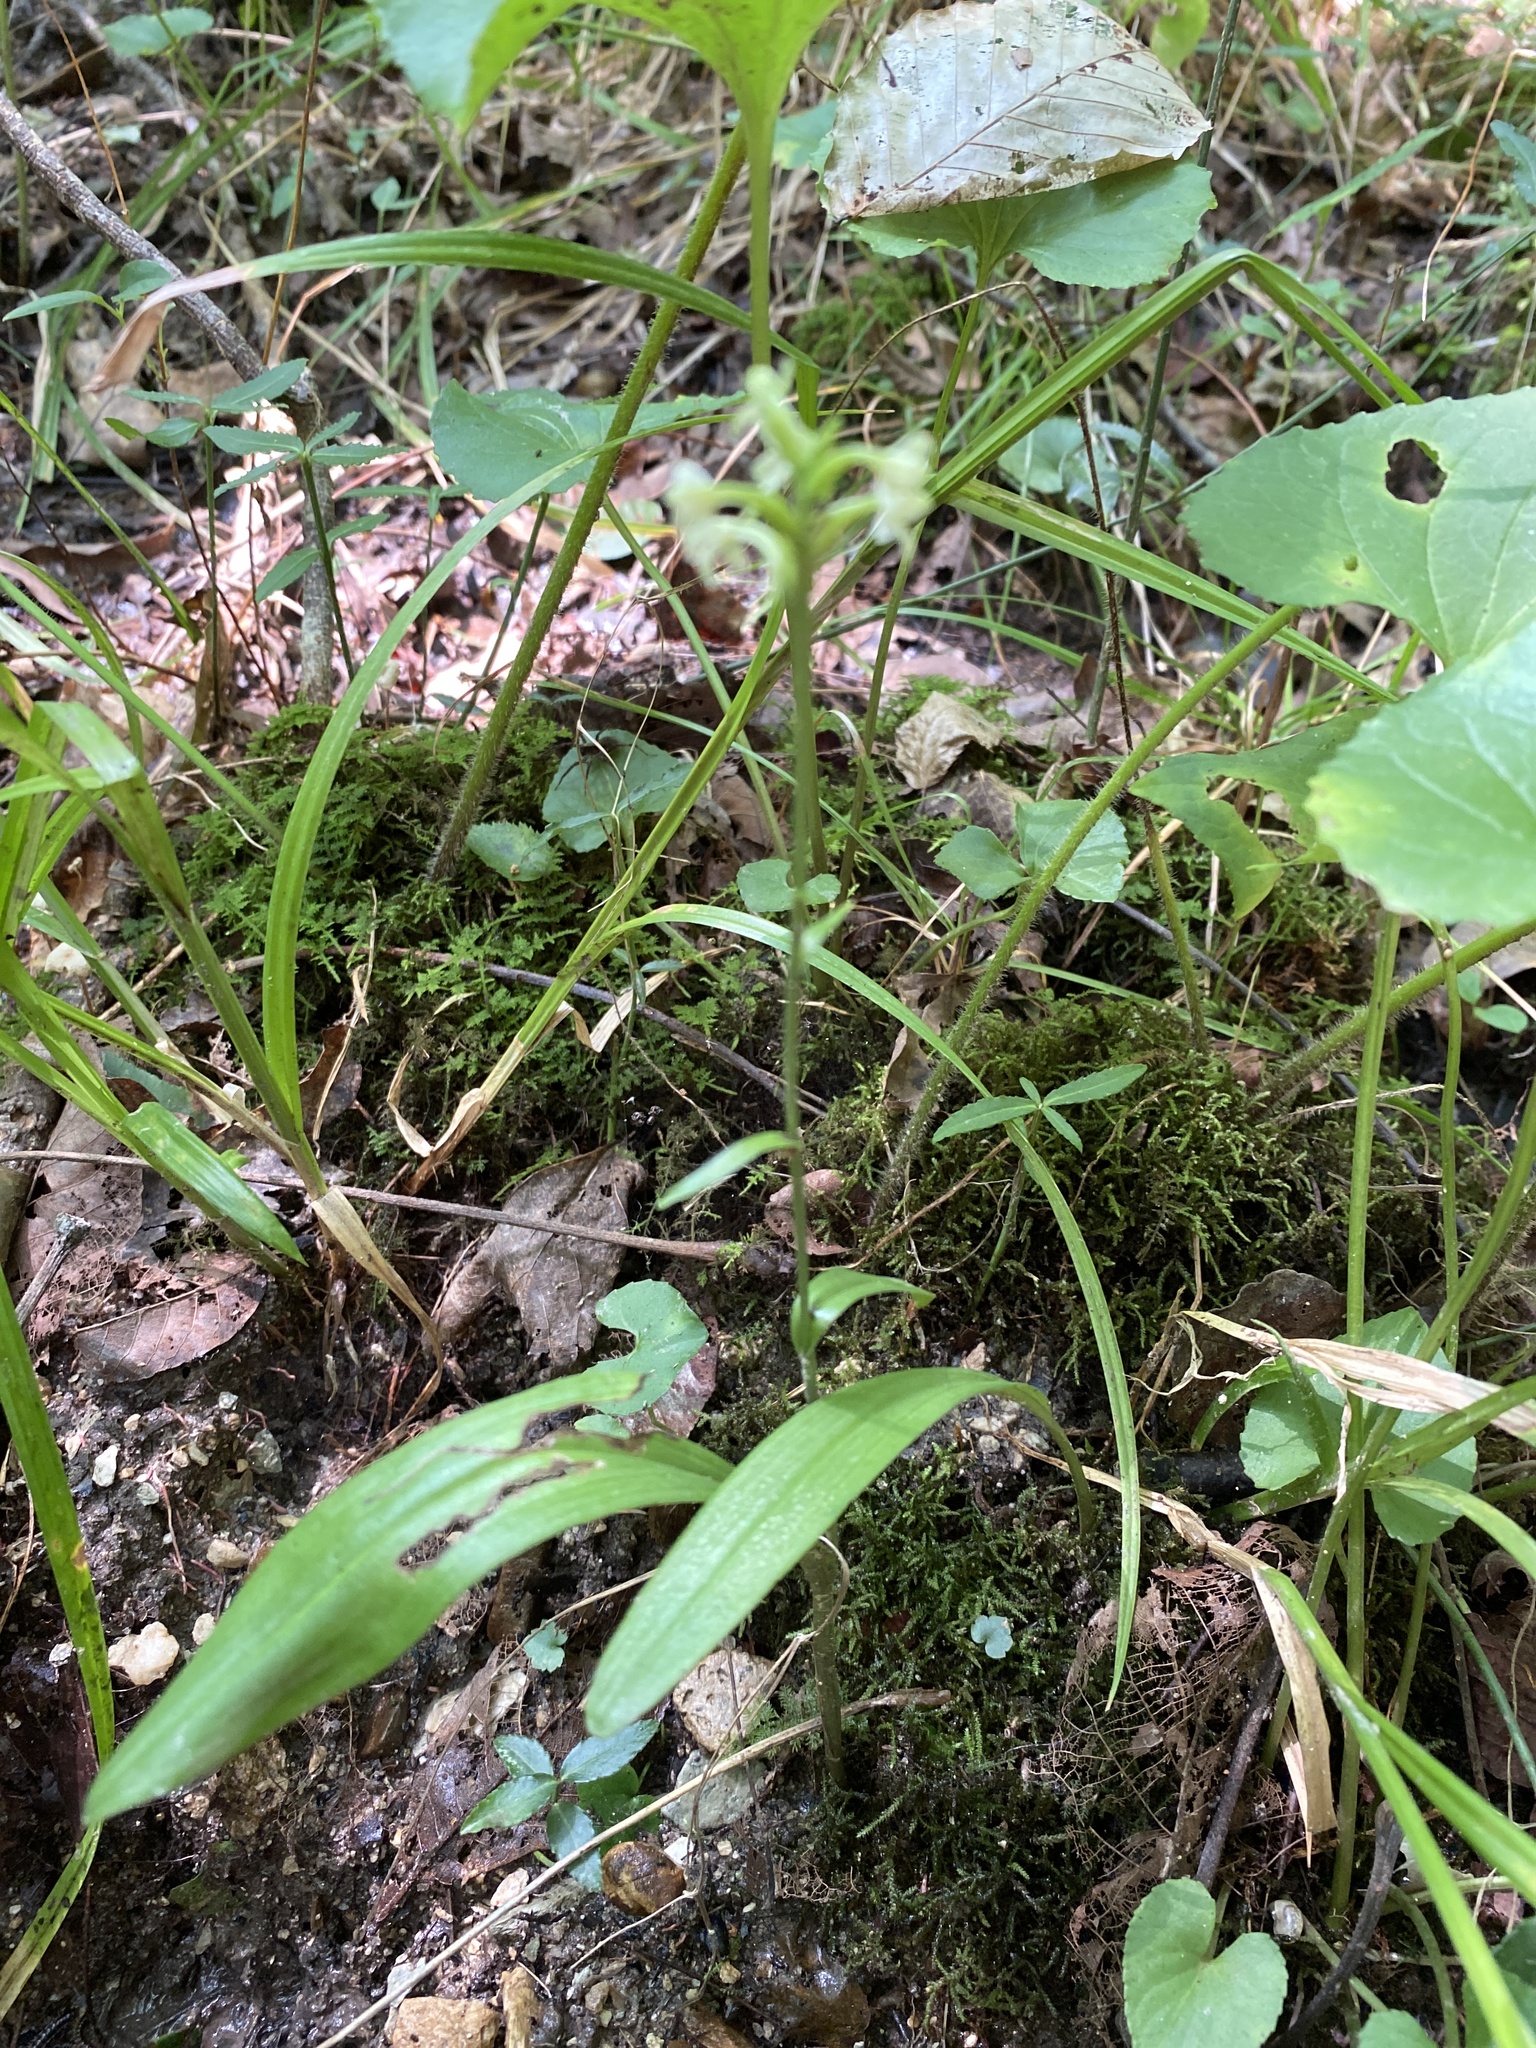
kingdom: Plantae
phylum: Tracheophyta
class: Liliopsida
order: Asparagales
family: Orchidaceae
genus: Platanthera
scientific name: Platanthera clavellata
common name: Club-spur orchid
